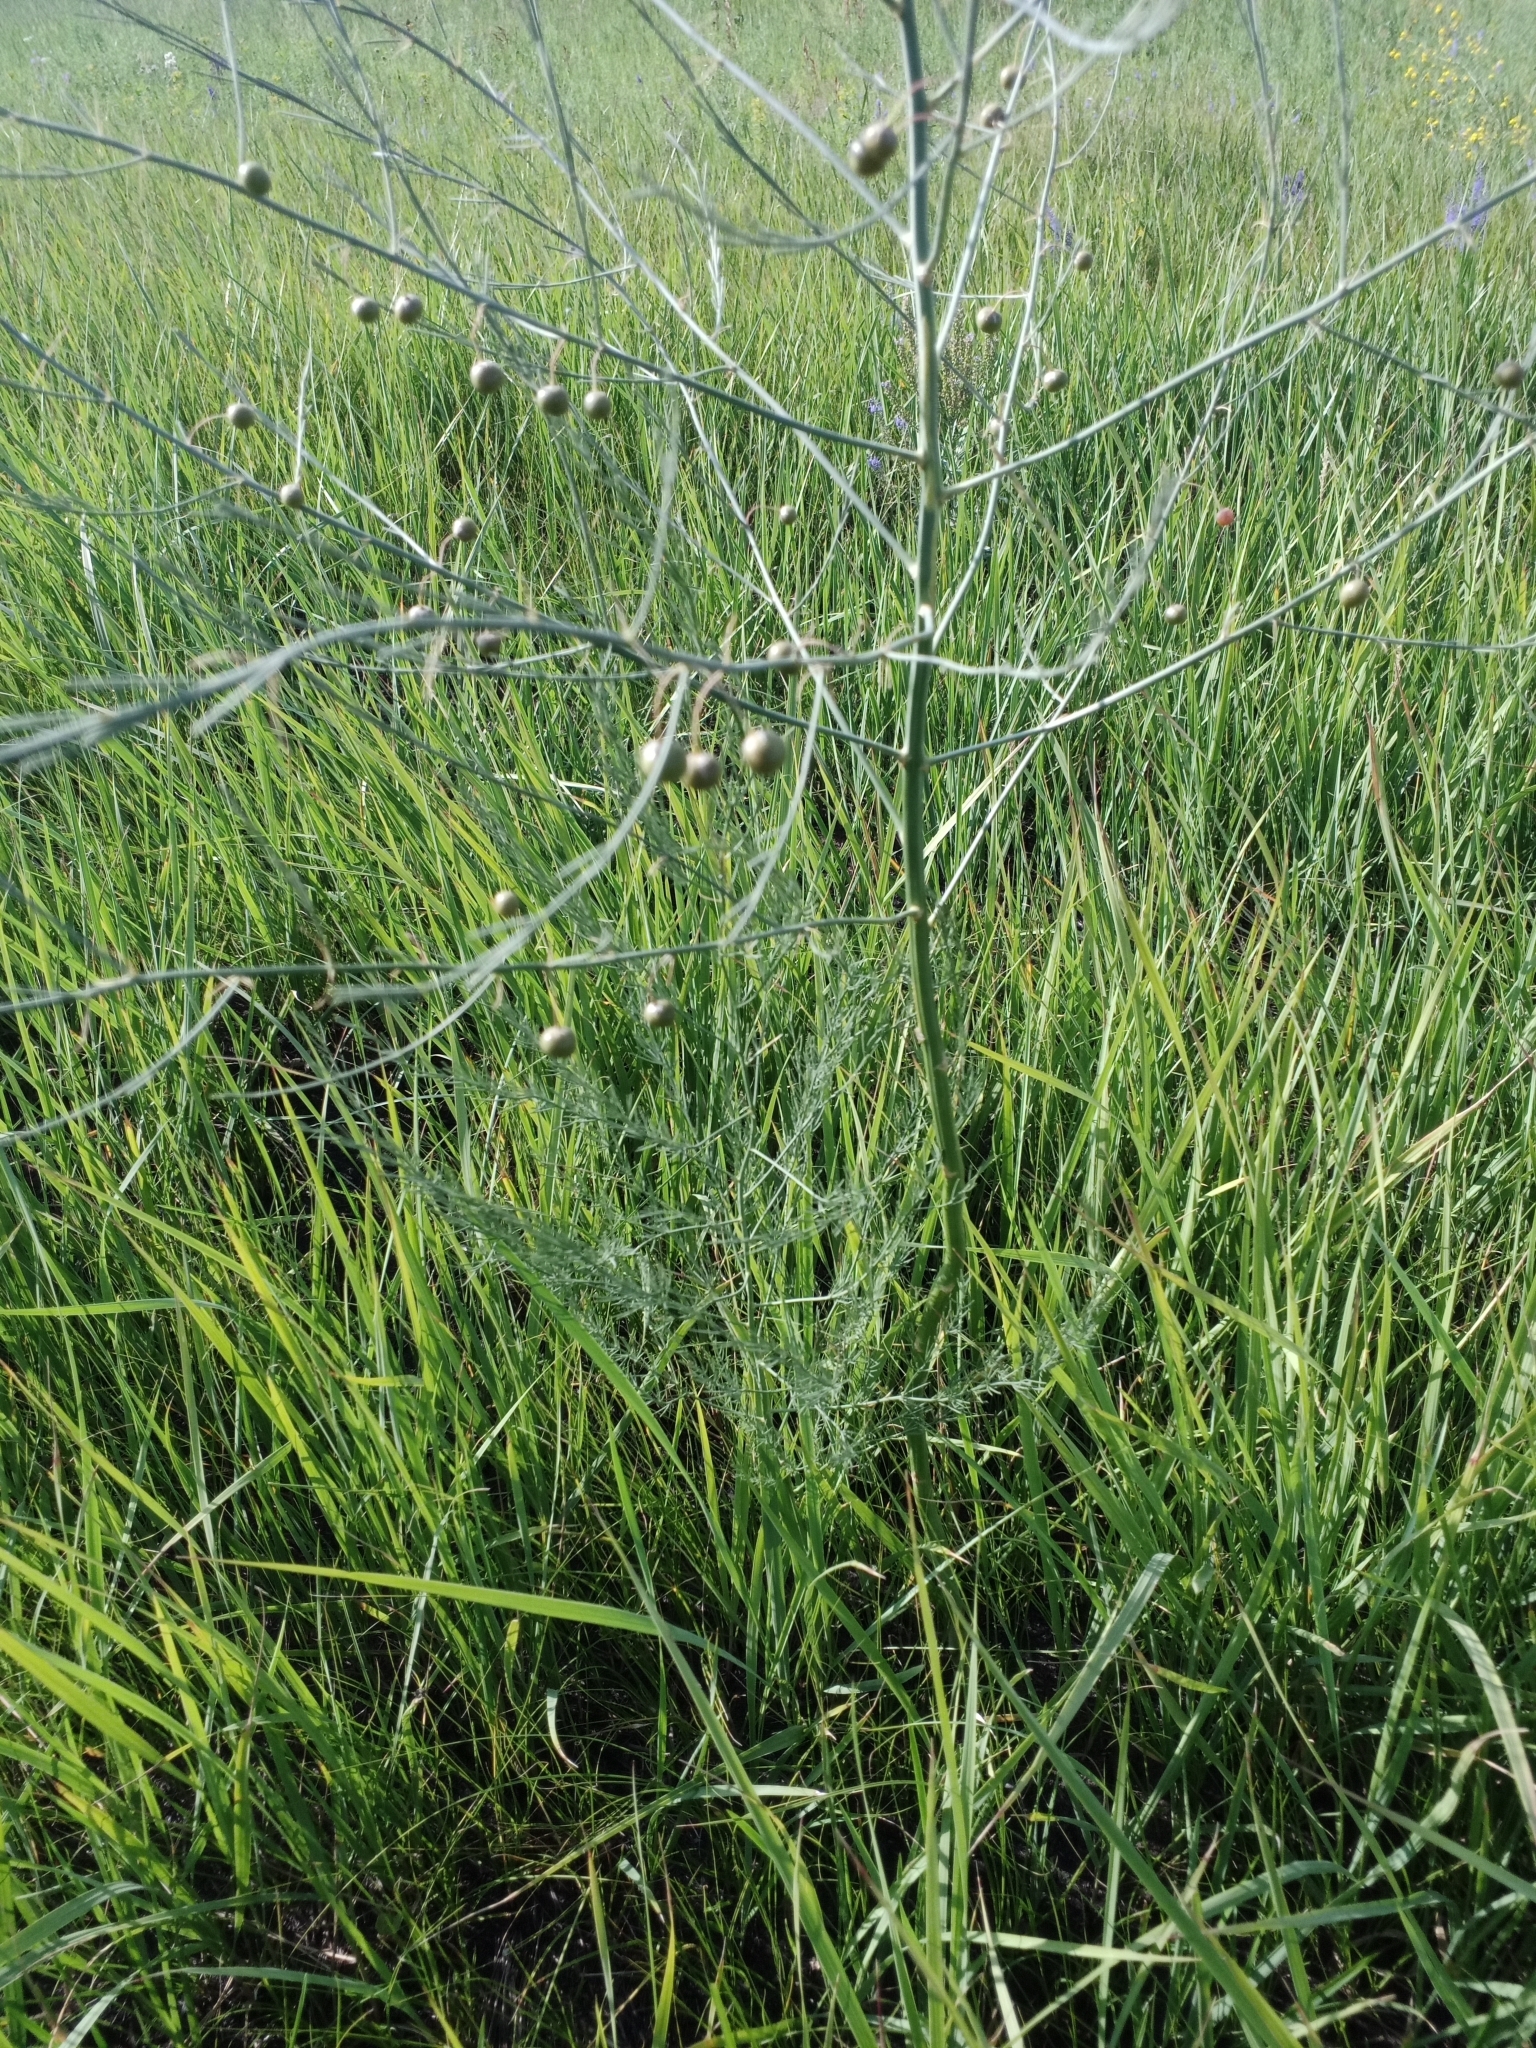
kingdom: Plantae
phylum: Tracheophyta
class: Liliopsida
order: Asparagales
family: Asparagaceae
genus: Asparagus
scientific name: Asparagus officinalis
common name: Garden asparagus
